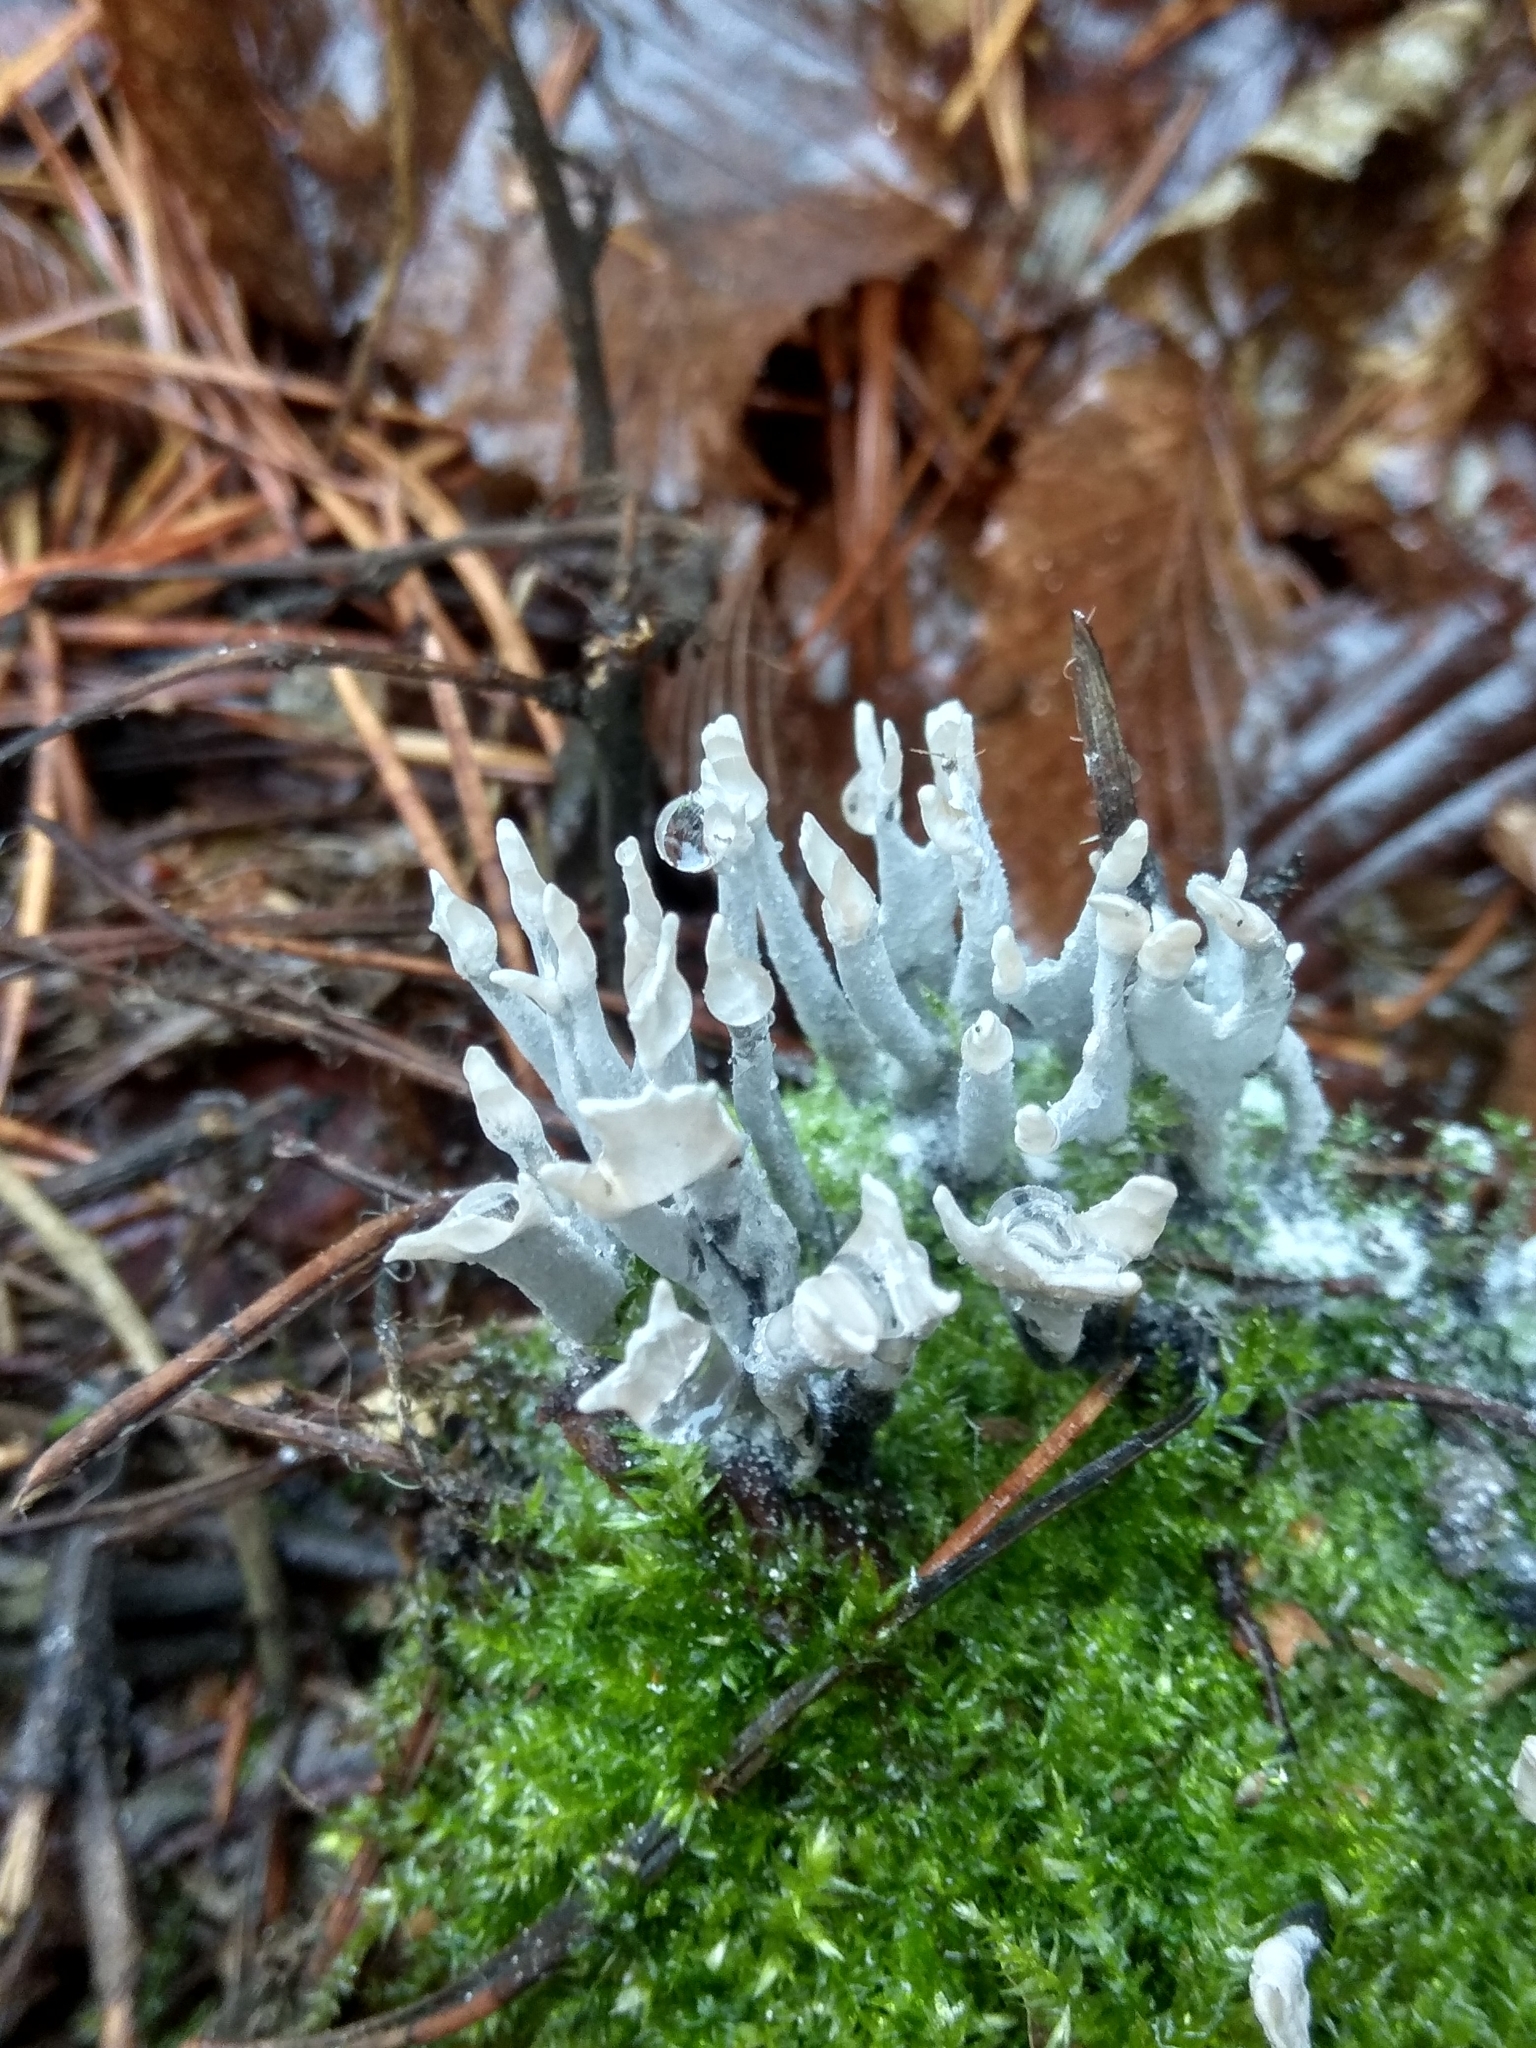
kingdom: Fungi
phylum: Ascomycota
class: Sordariomycetes
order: Xylariales
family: Xylariaceae
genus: Xylaria
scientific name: Xylaria hypoxylon
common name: Candle-snuff fungus
